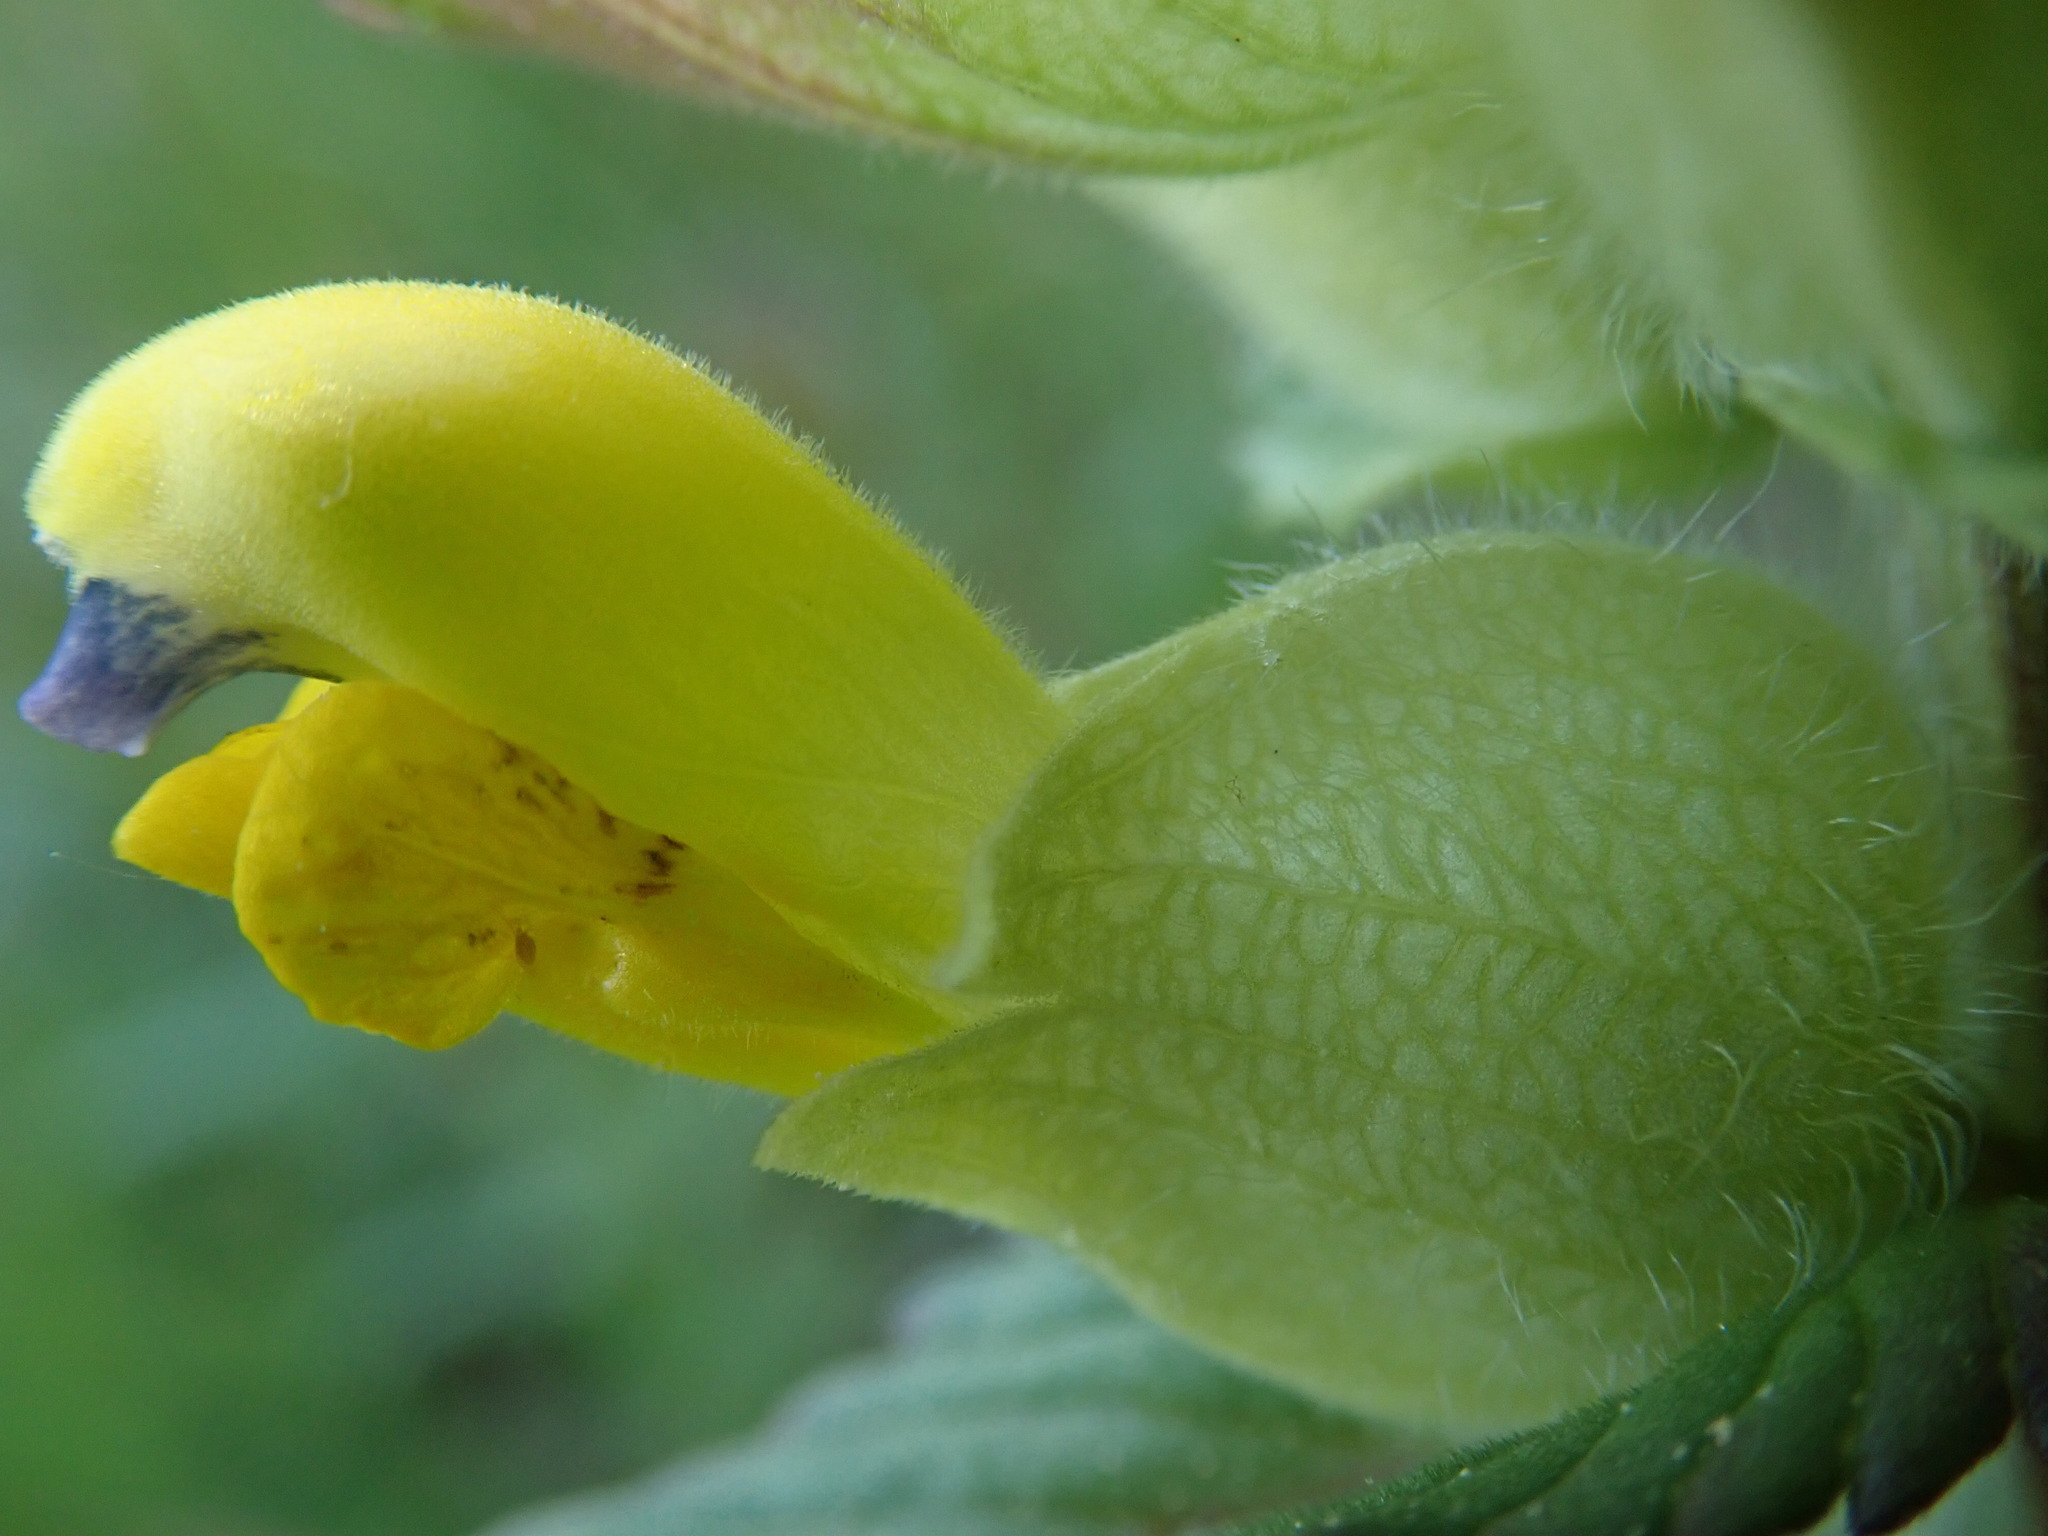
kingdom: Plantae
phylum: Tracheophyta
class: Magnoliopsida
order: Lamiales
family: Orobanchaceae
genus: Rhinanthus
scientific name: Rhinanthus alectorolophus
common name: Greater yellow-rattle
